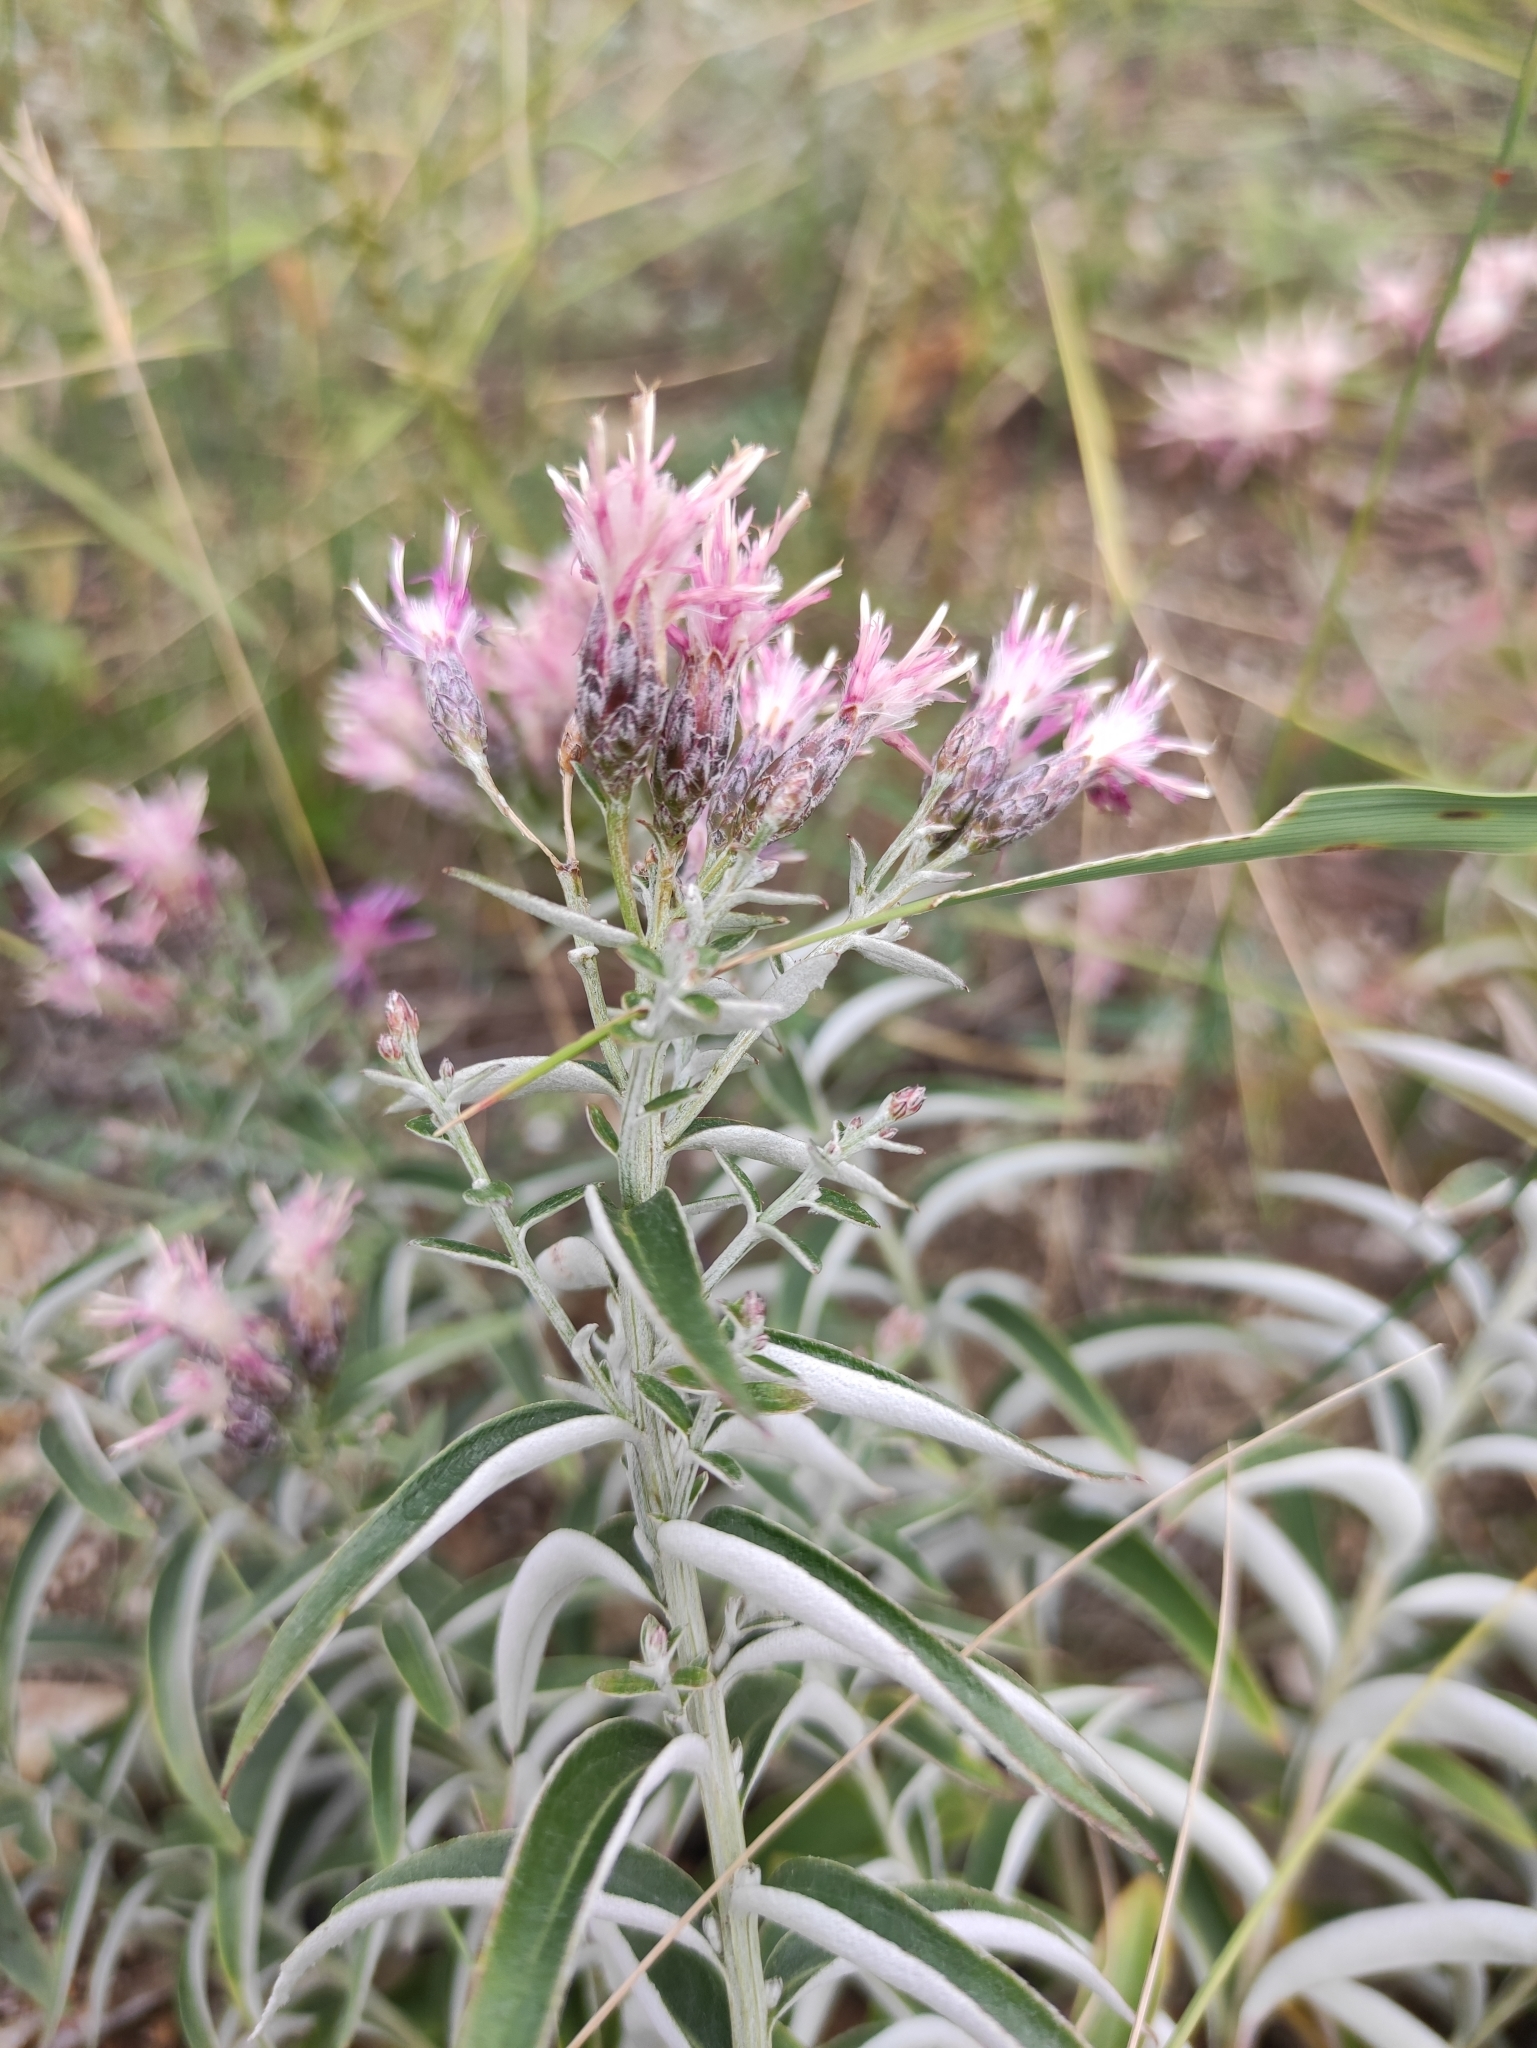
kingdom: Plantae
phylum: Tracheophyta
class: Magnoliopsida
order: Asterales
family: Asteraceae
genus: Saussurea
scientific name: Saussurea salicifolia
